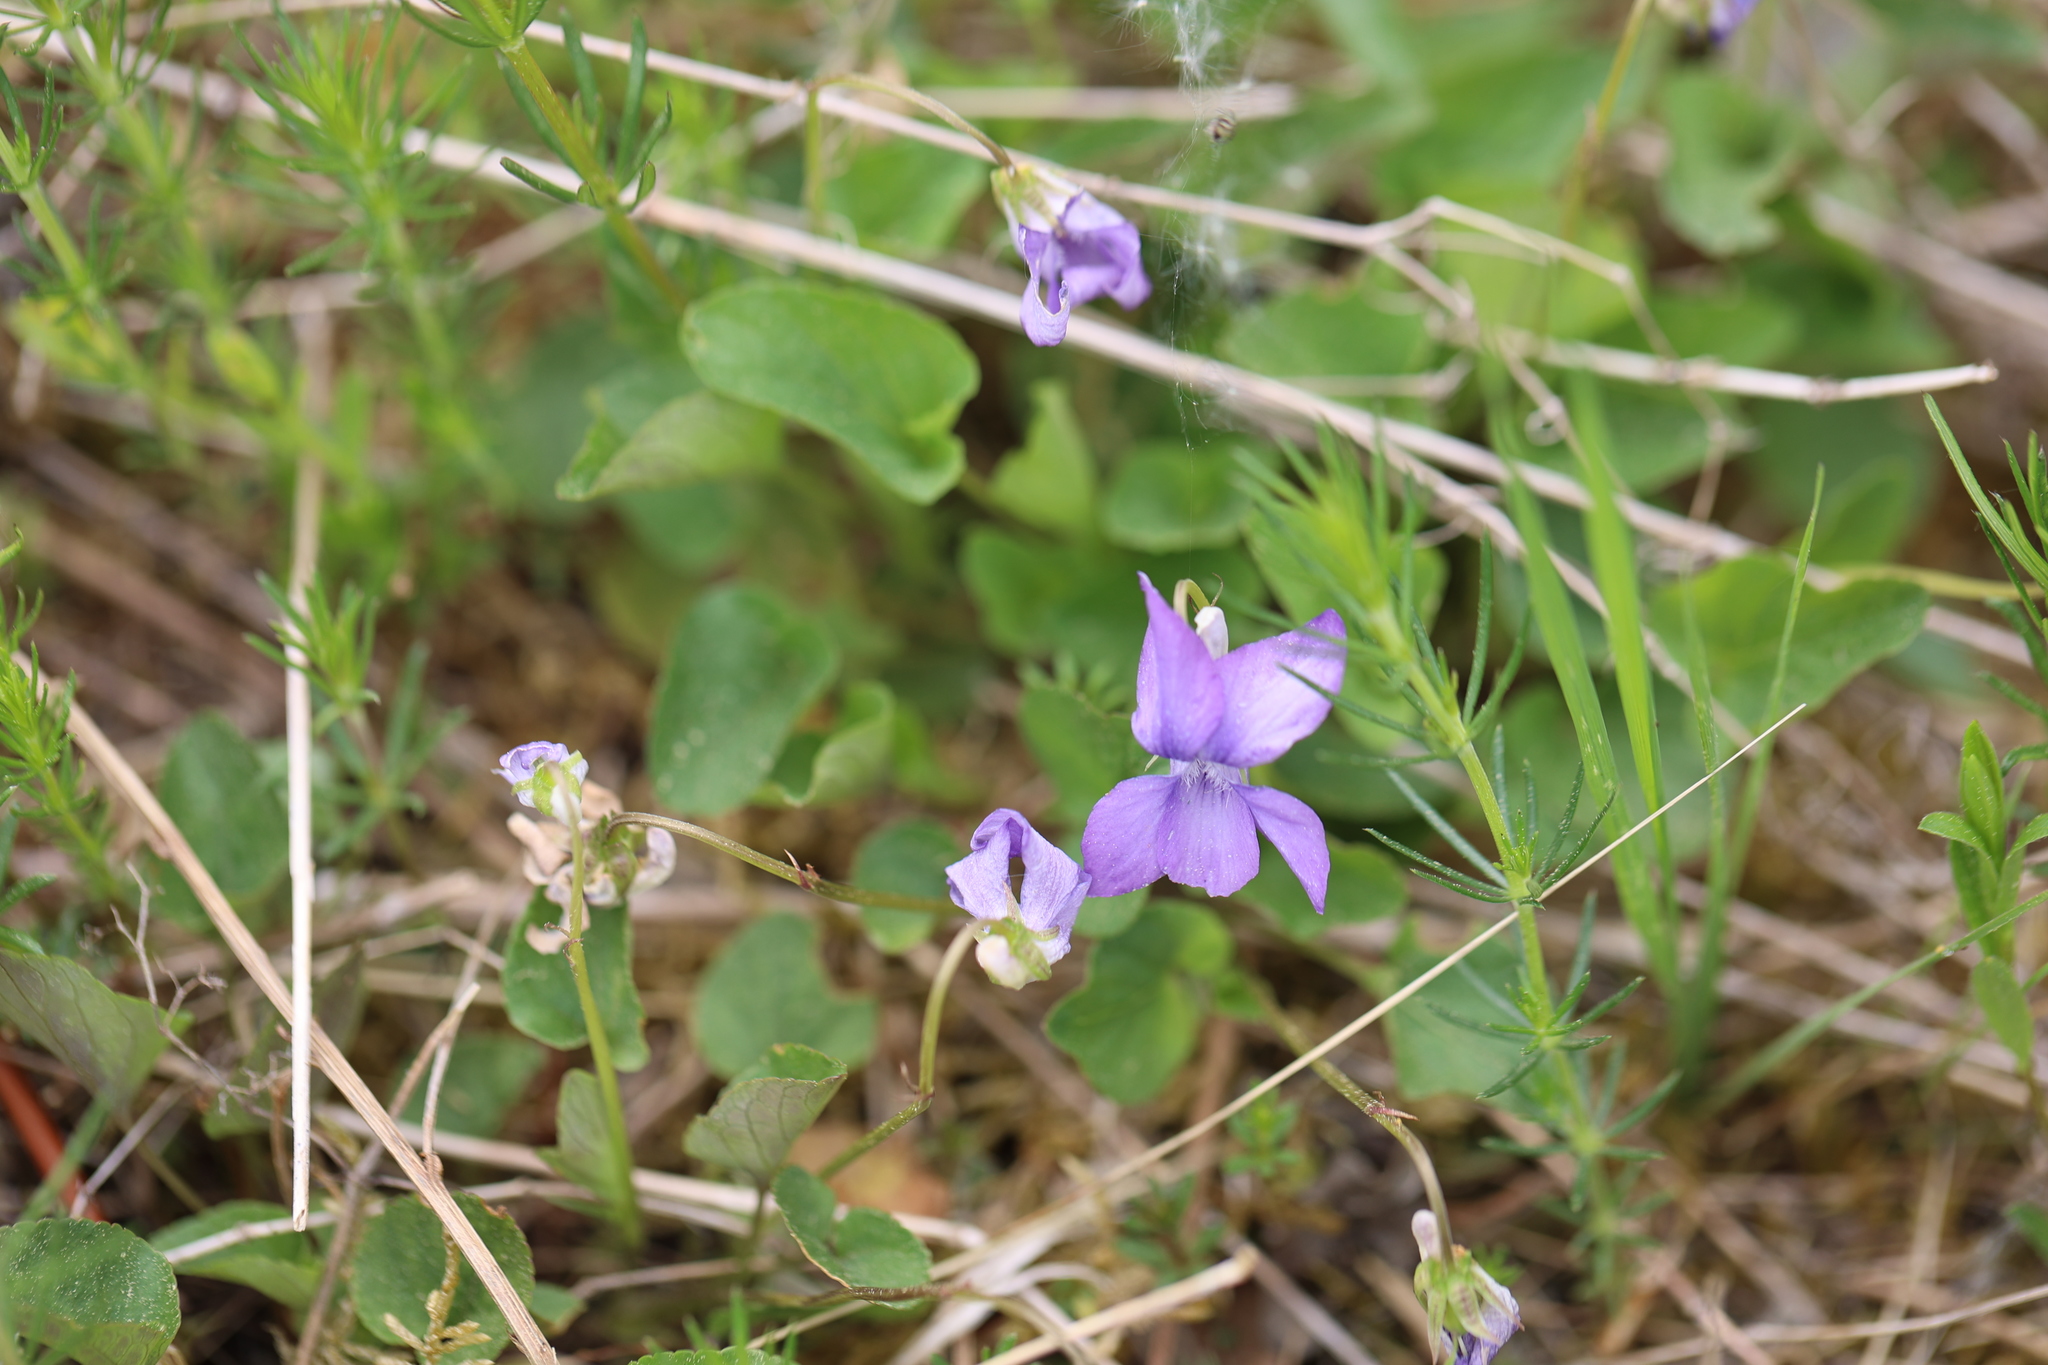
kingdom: Plantae
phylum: Tracheophyta
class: Magnoliopsida
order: Malpighiales
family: Violaceae
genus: Viola
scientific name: Viola riviniana
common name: Common dog-violet
